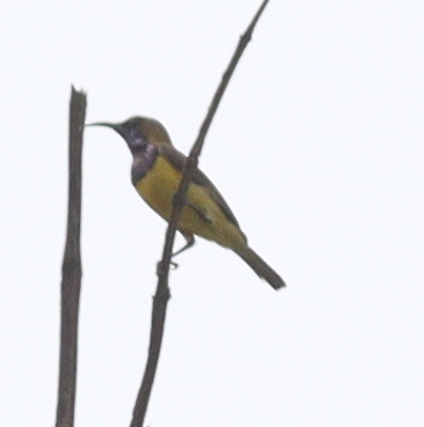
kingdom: Animalia
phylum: Chordata
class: Aves
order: Passeriformes
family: Nectariniidae
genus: Cinnyris
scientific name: Cinnyris
